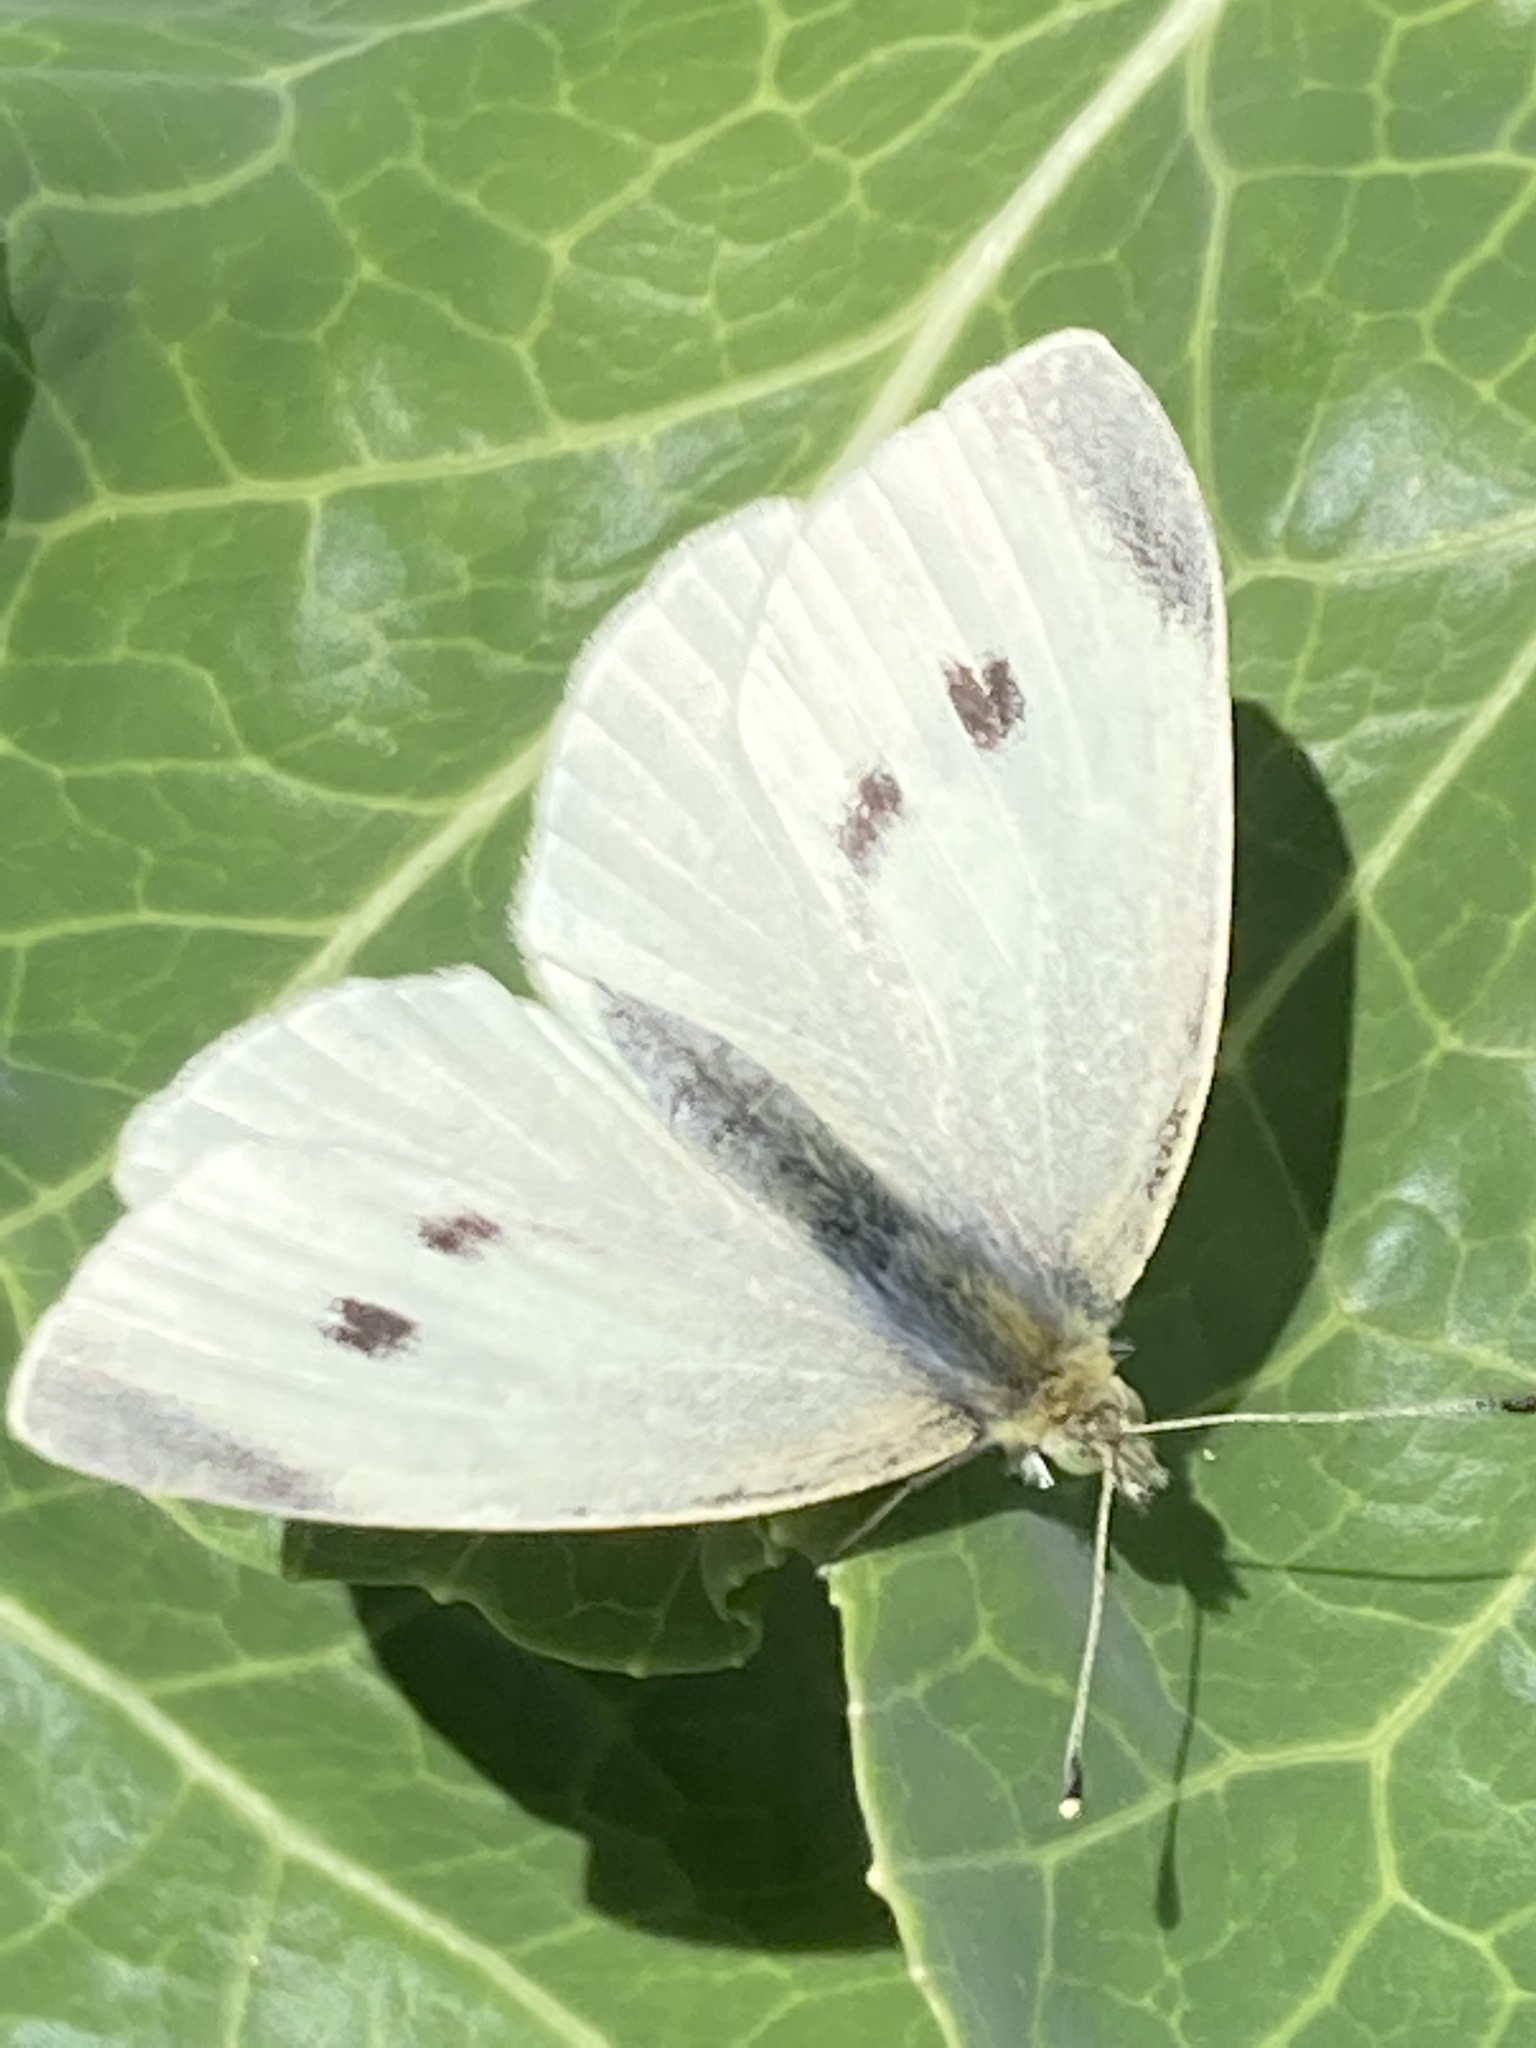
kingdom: Animalia
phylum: Arthropoda
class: Insecta
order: Lepidoptera
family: Pieridae
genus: Pieris
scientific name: Pieris rapae
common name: Small white
